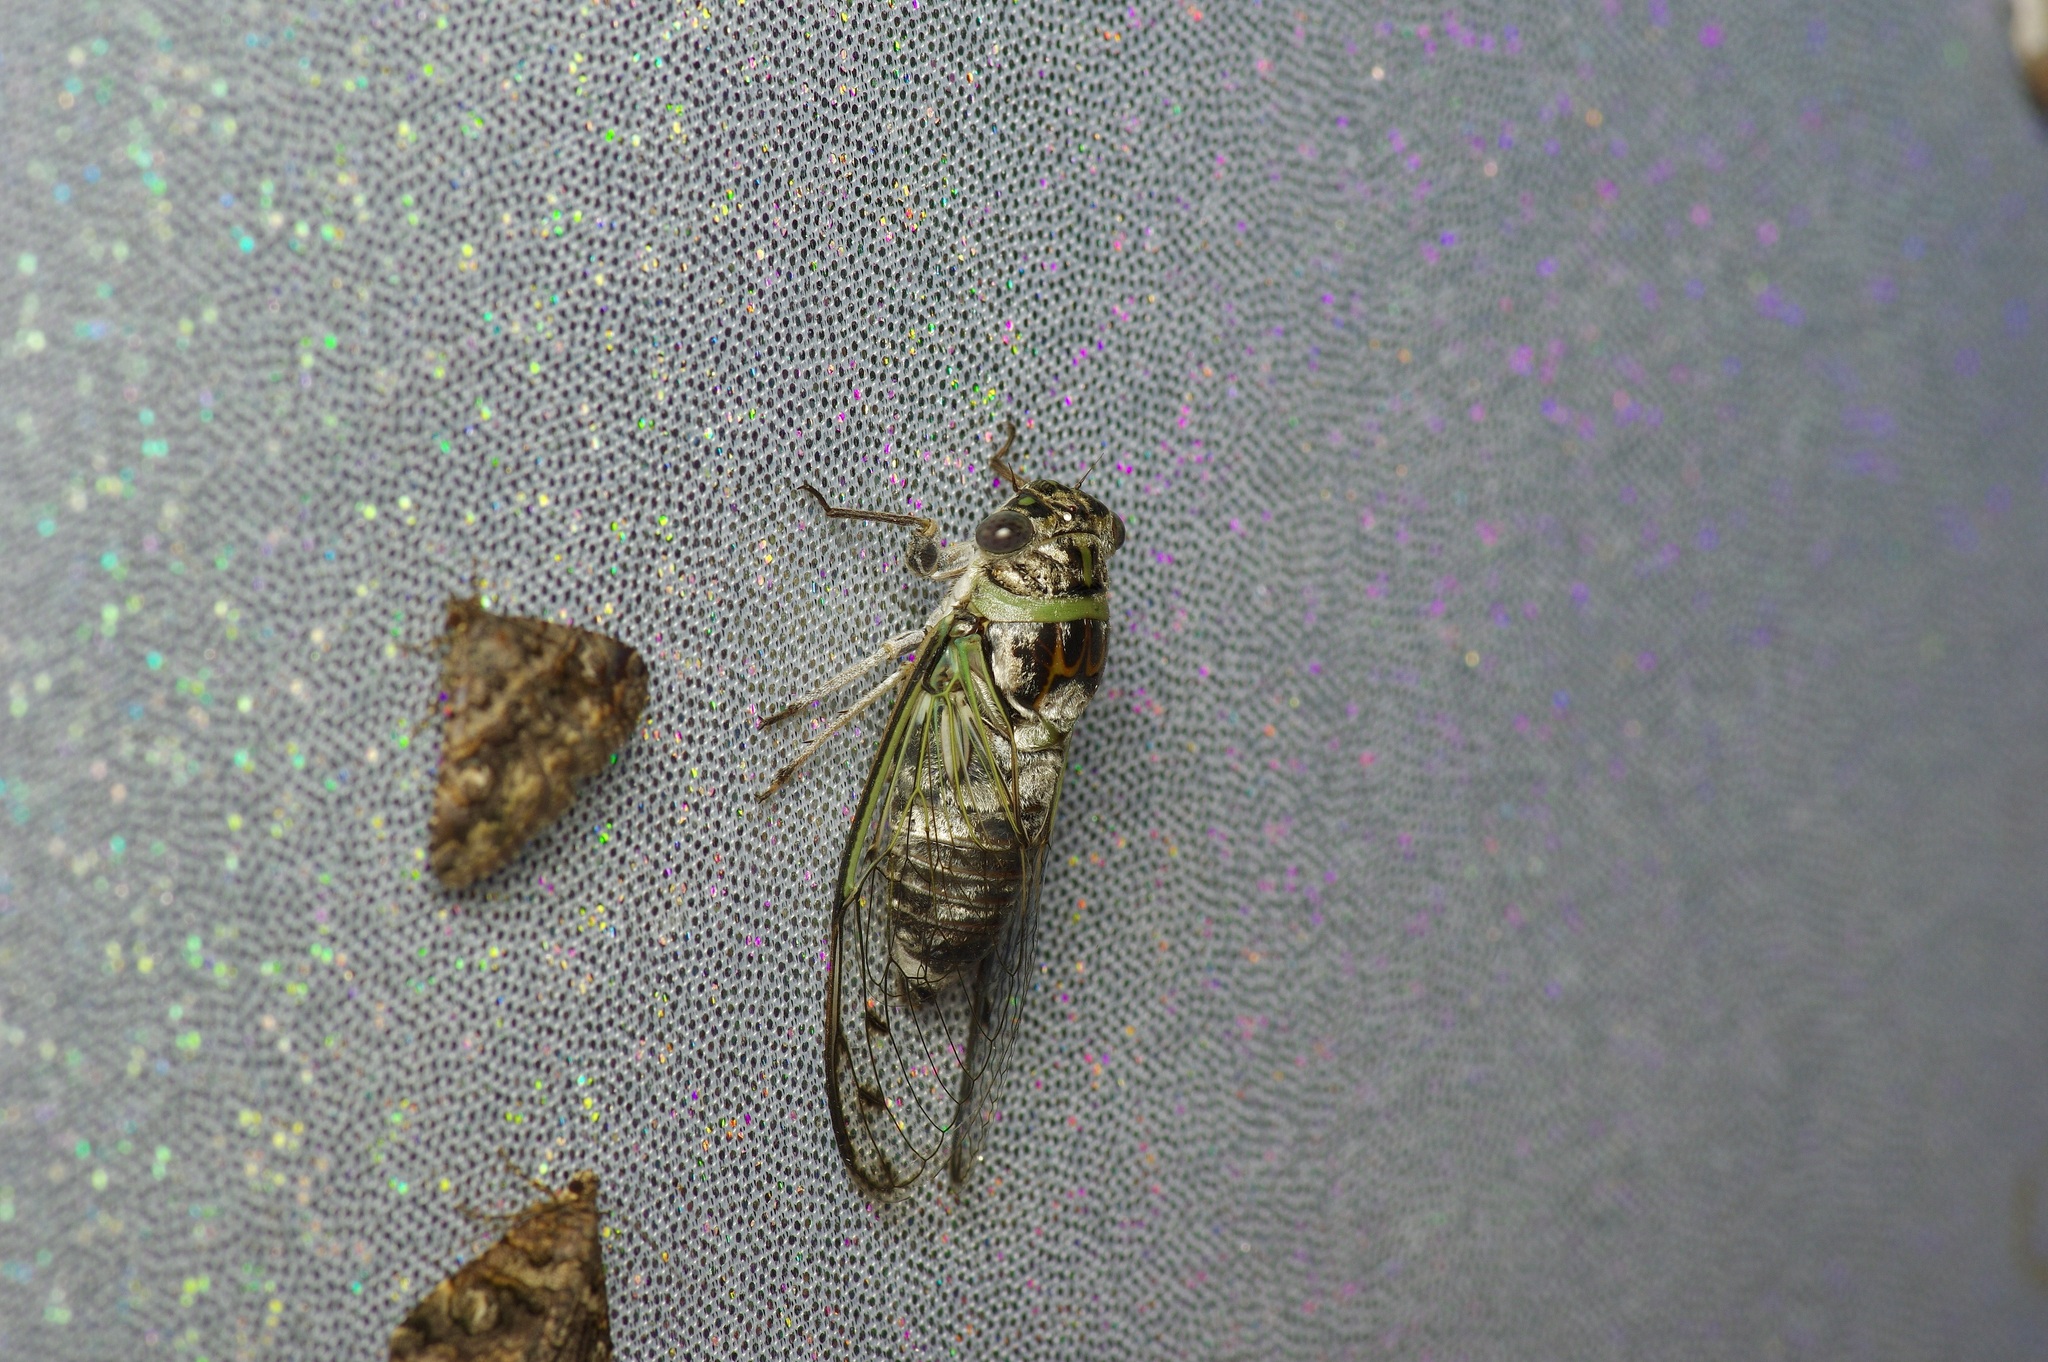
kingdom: Animalia
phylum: Arthropoda
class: Insecta
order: Hemiptera
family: Cicadidae
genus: Diceroprocta
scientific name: Diceroprocta texana
